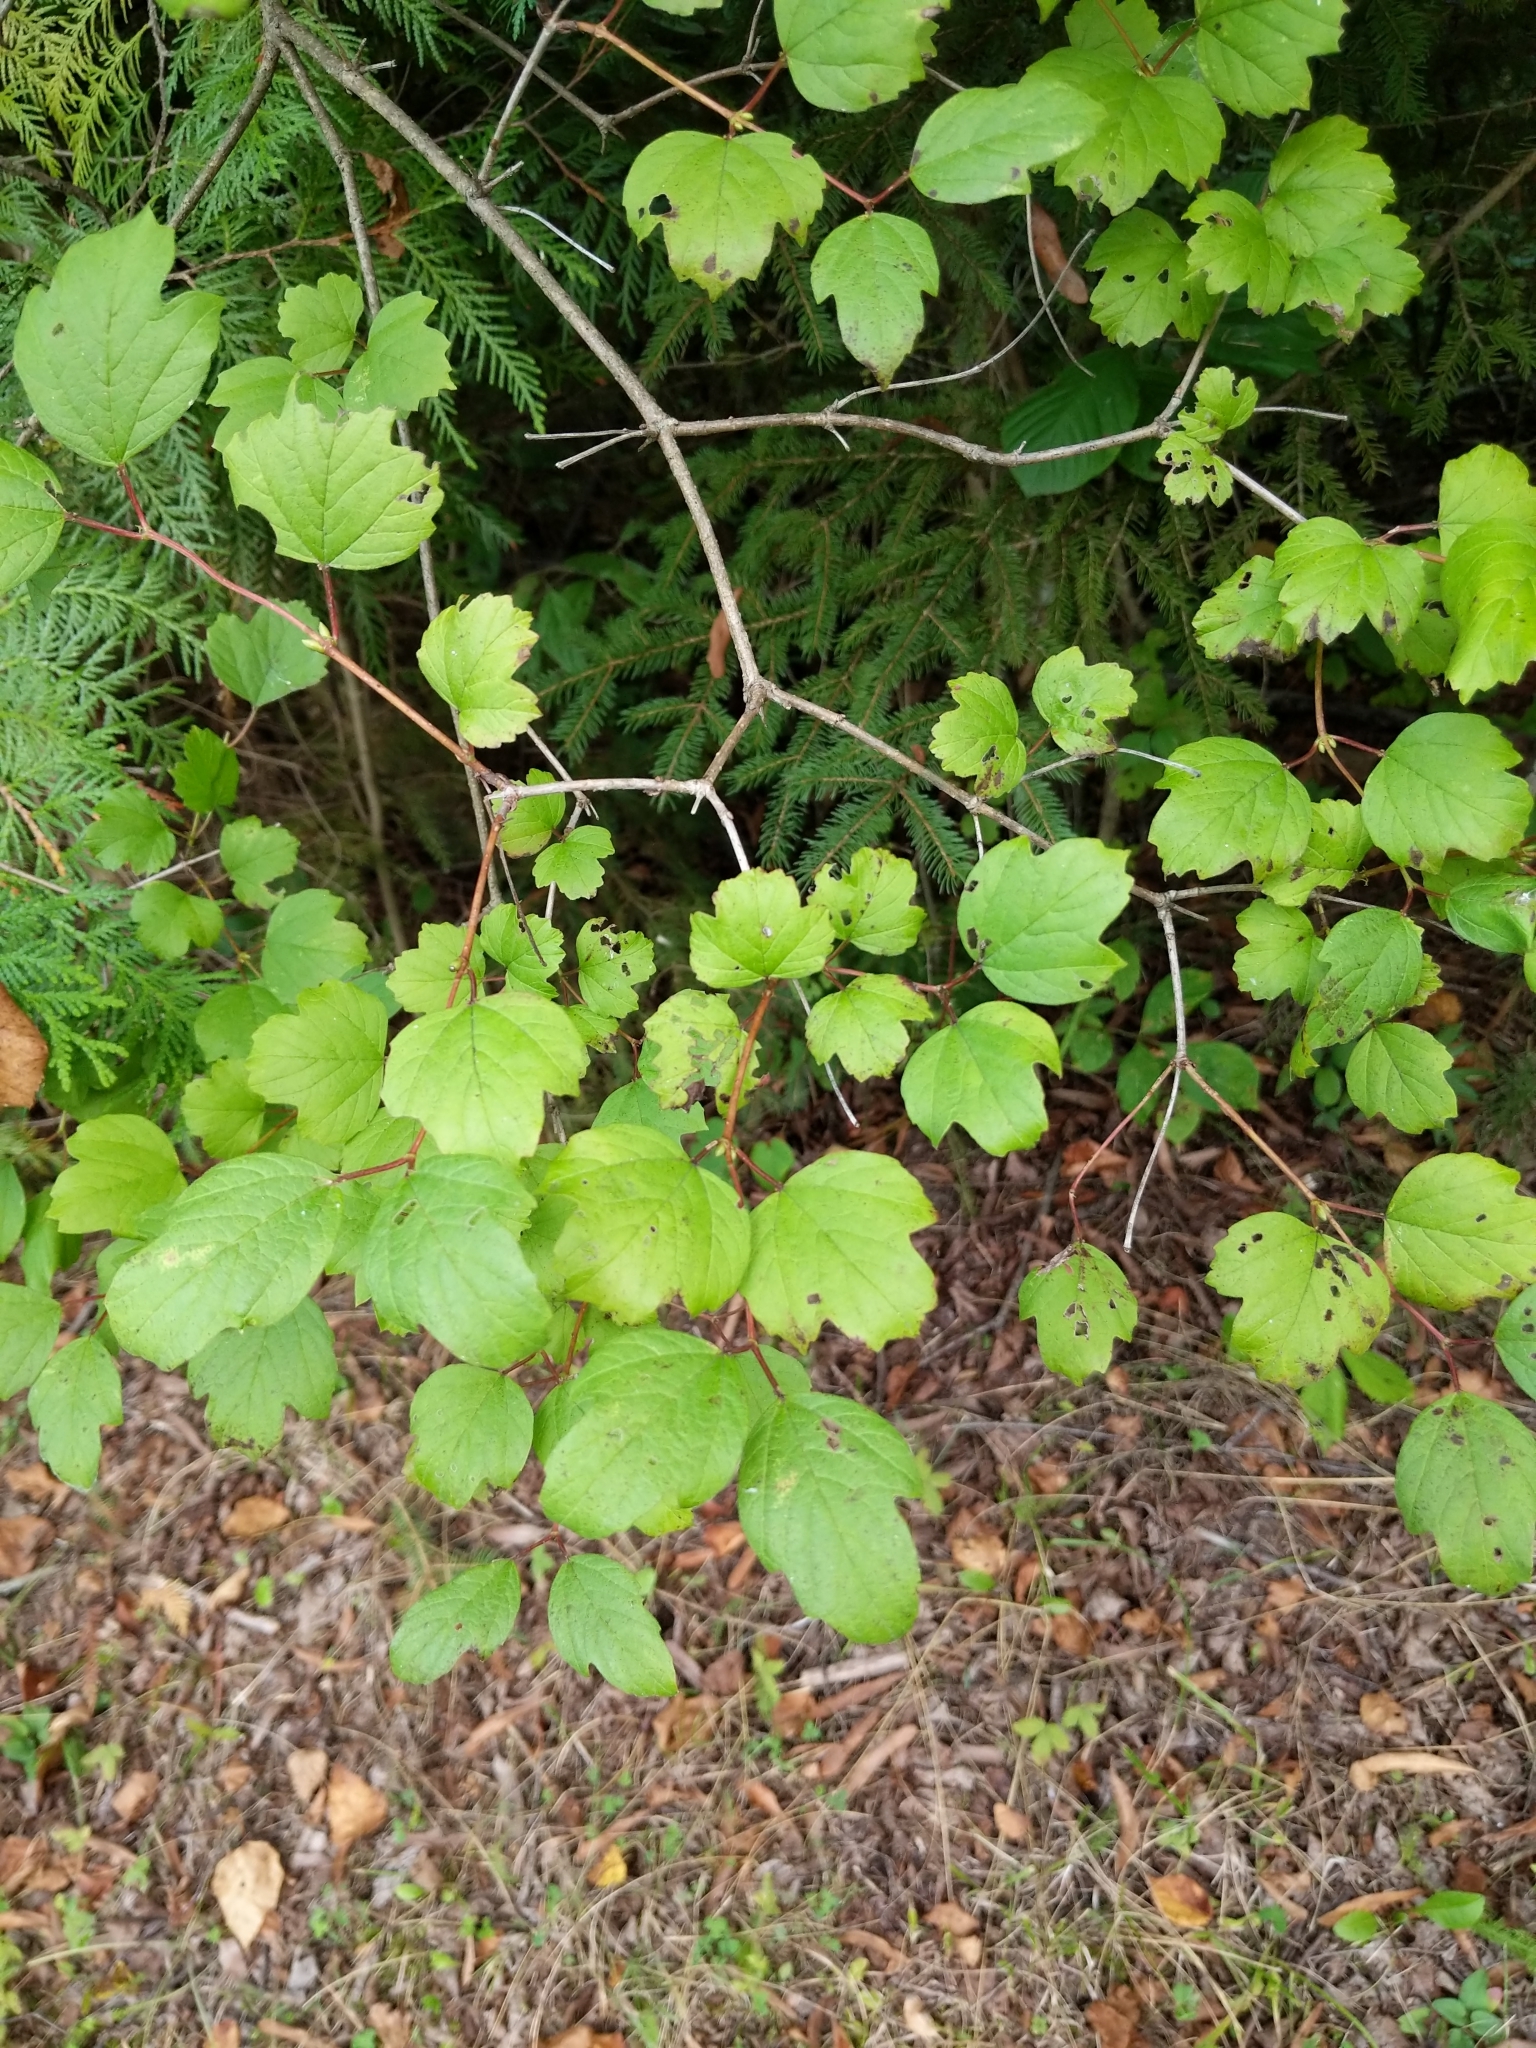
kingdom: Plantae
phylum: Tracheophyta
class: Magnoliopsida
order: Dipsacales
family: Viburnaceae
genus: Viburnum
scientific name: Viburnum trilobum
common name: American cranberrybush
